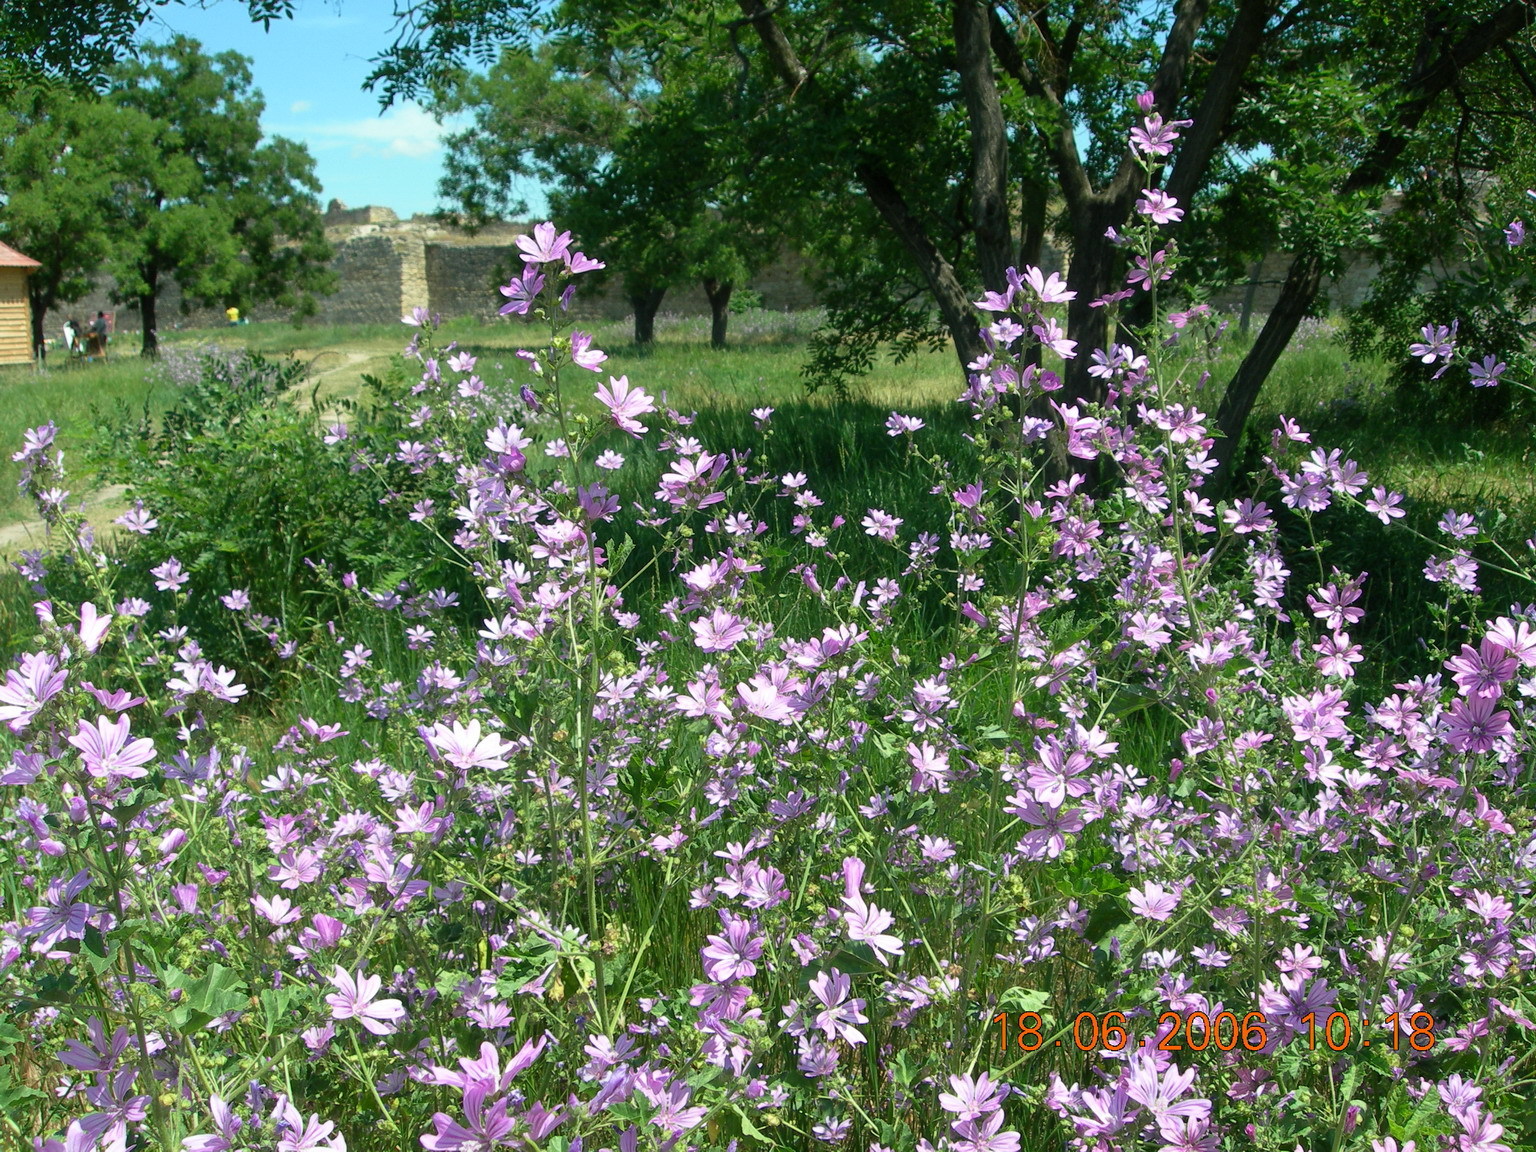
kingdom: Plantae
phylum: Tracheophyta
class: Magnoliopsida
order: Malvales
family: Malvaceae
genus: Malva
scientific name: Malva sylvestris
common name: Common mallow
